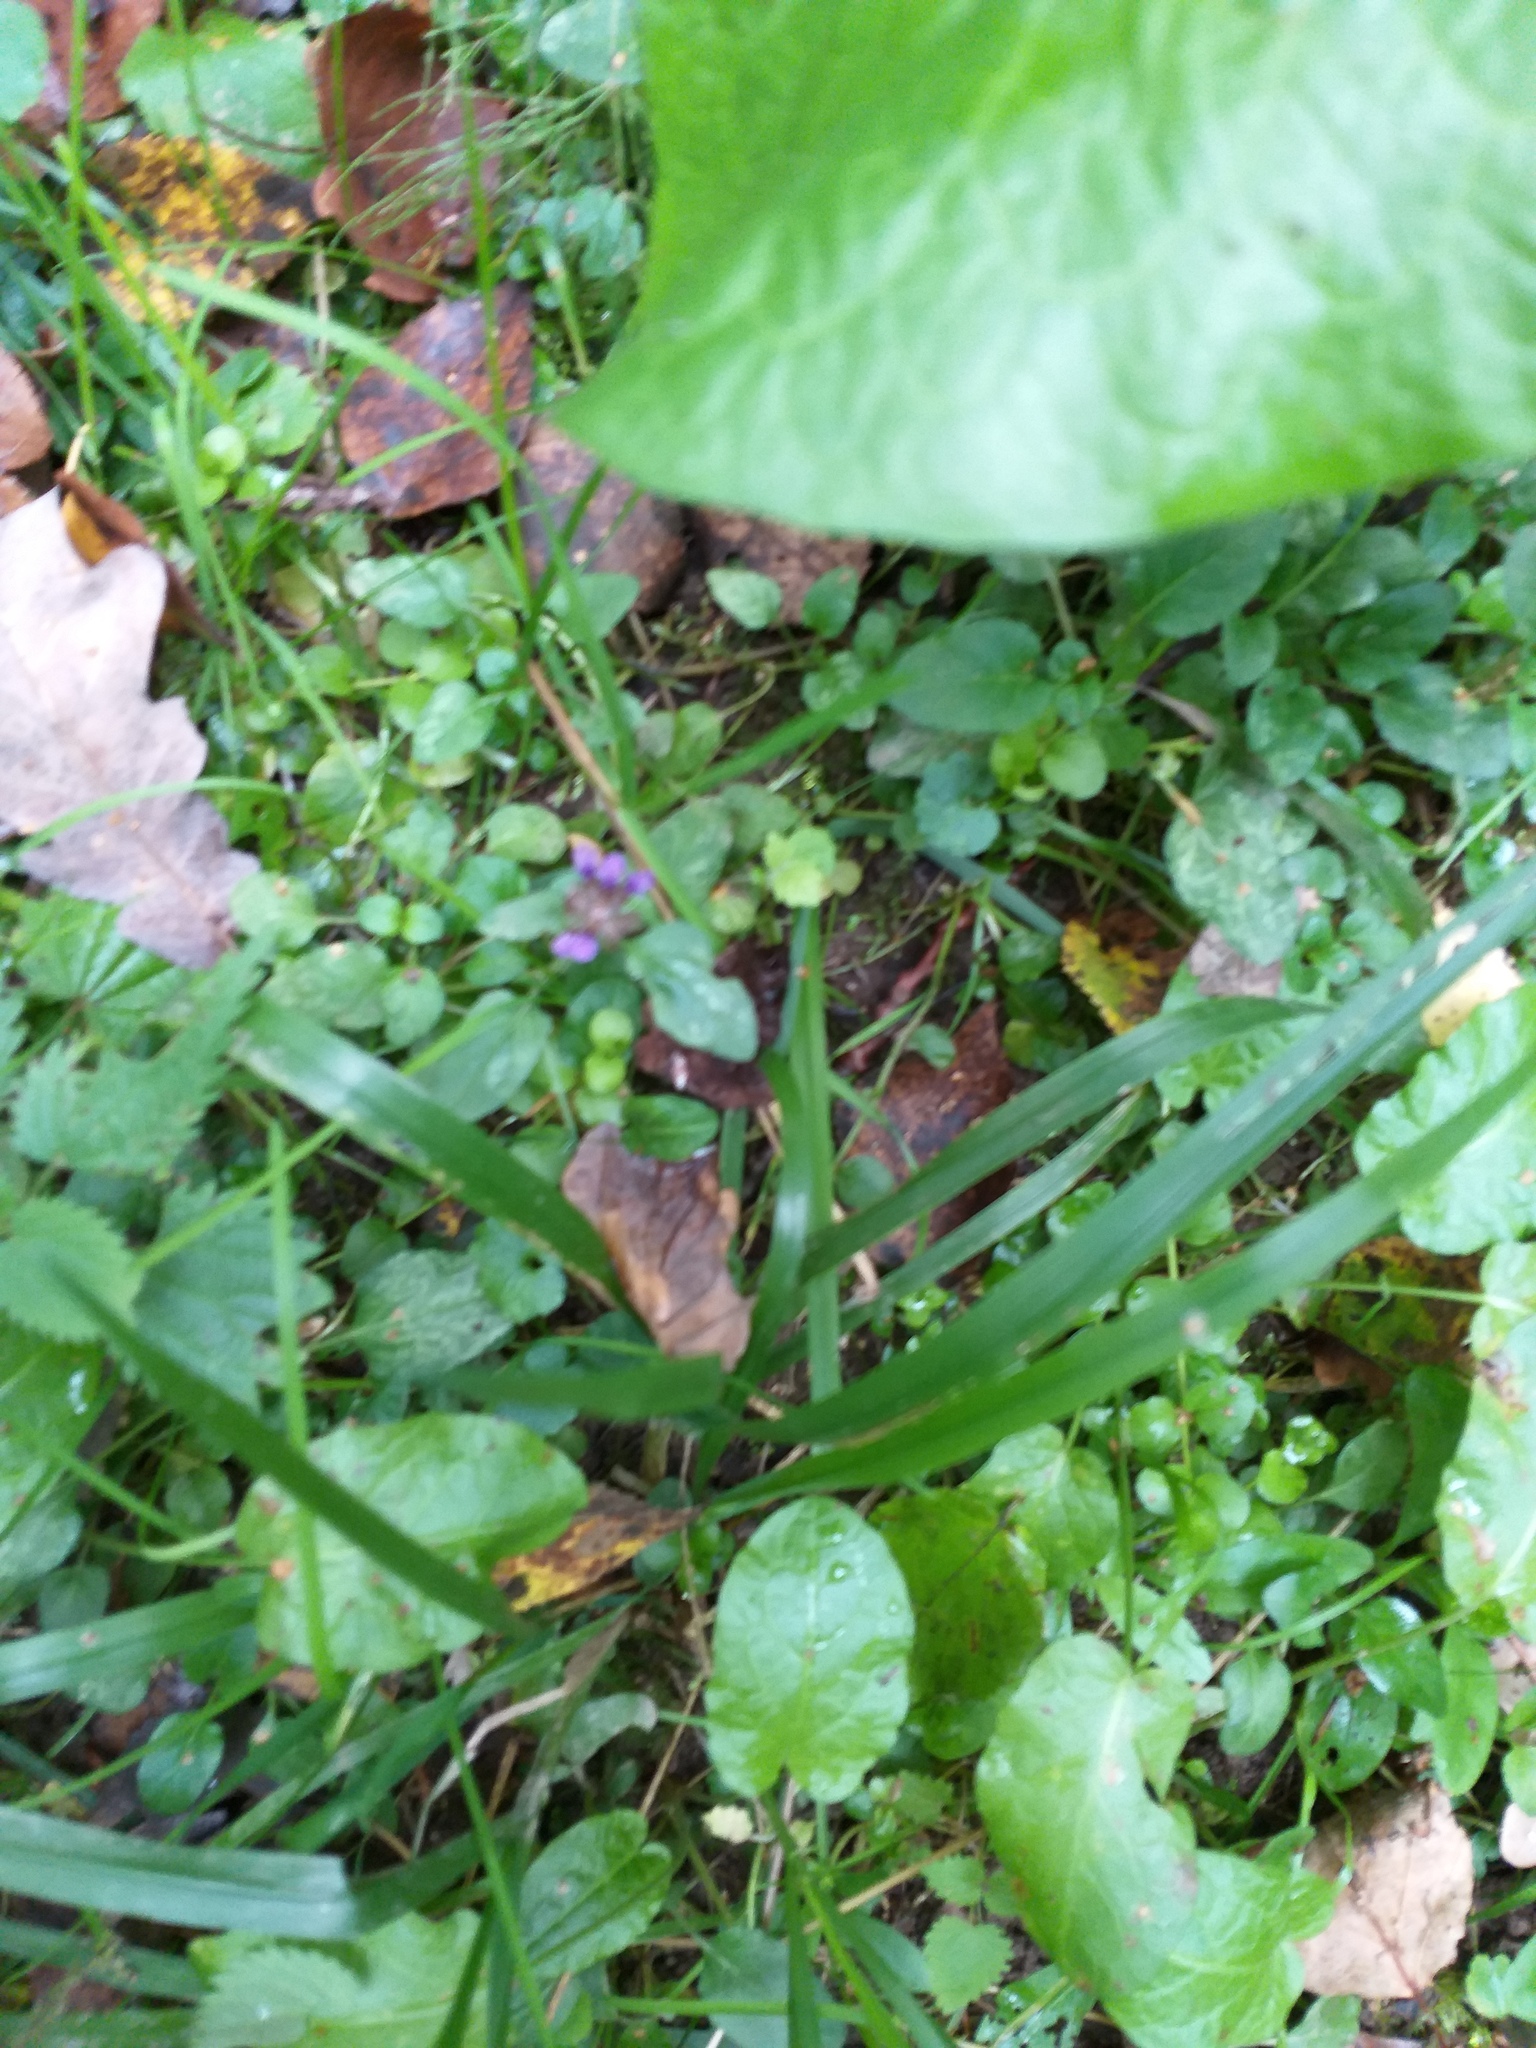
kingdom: Plantae
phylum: Tracheophyta
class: Magnoliopsida
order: Lamiales
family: Lamiaceae
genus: Prunella
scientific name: Prunella vulgaris
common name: Heal-all
